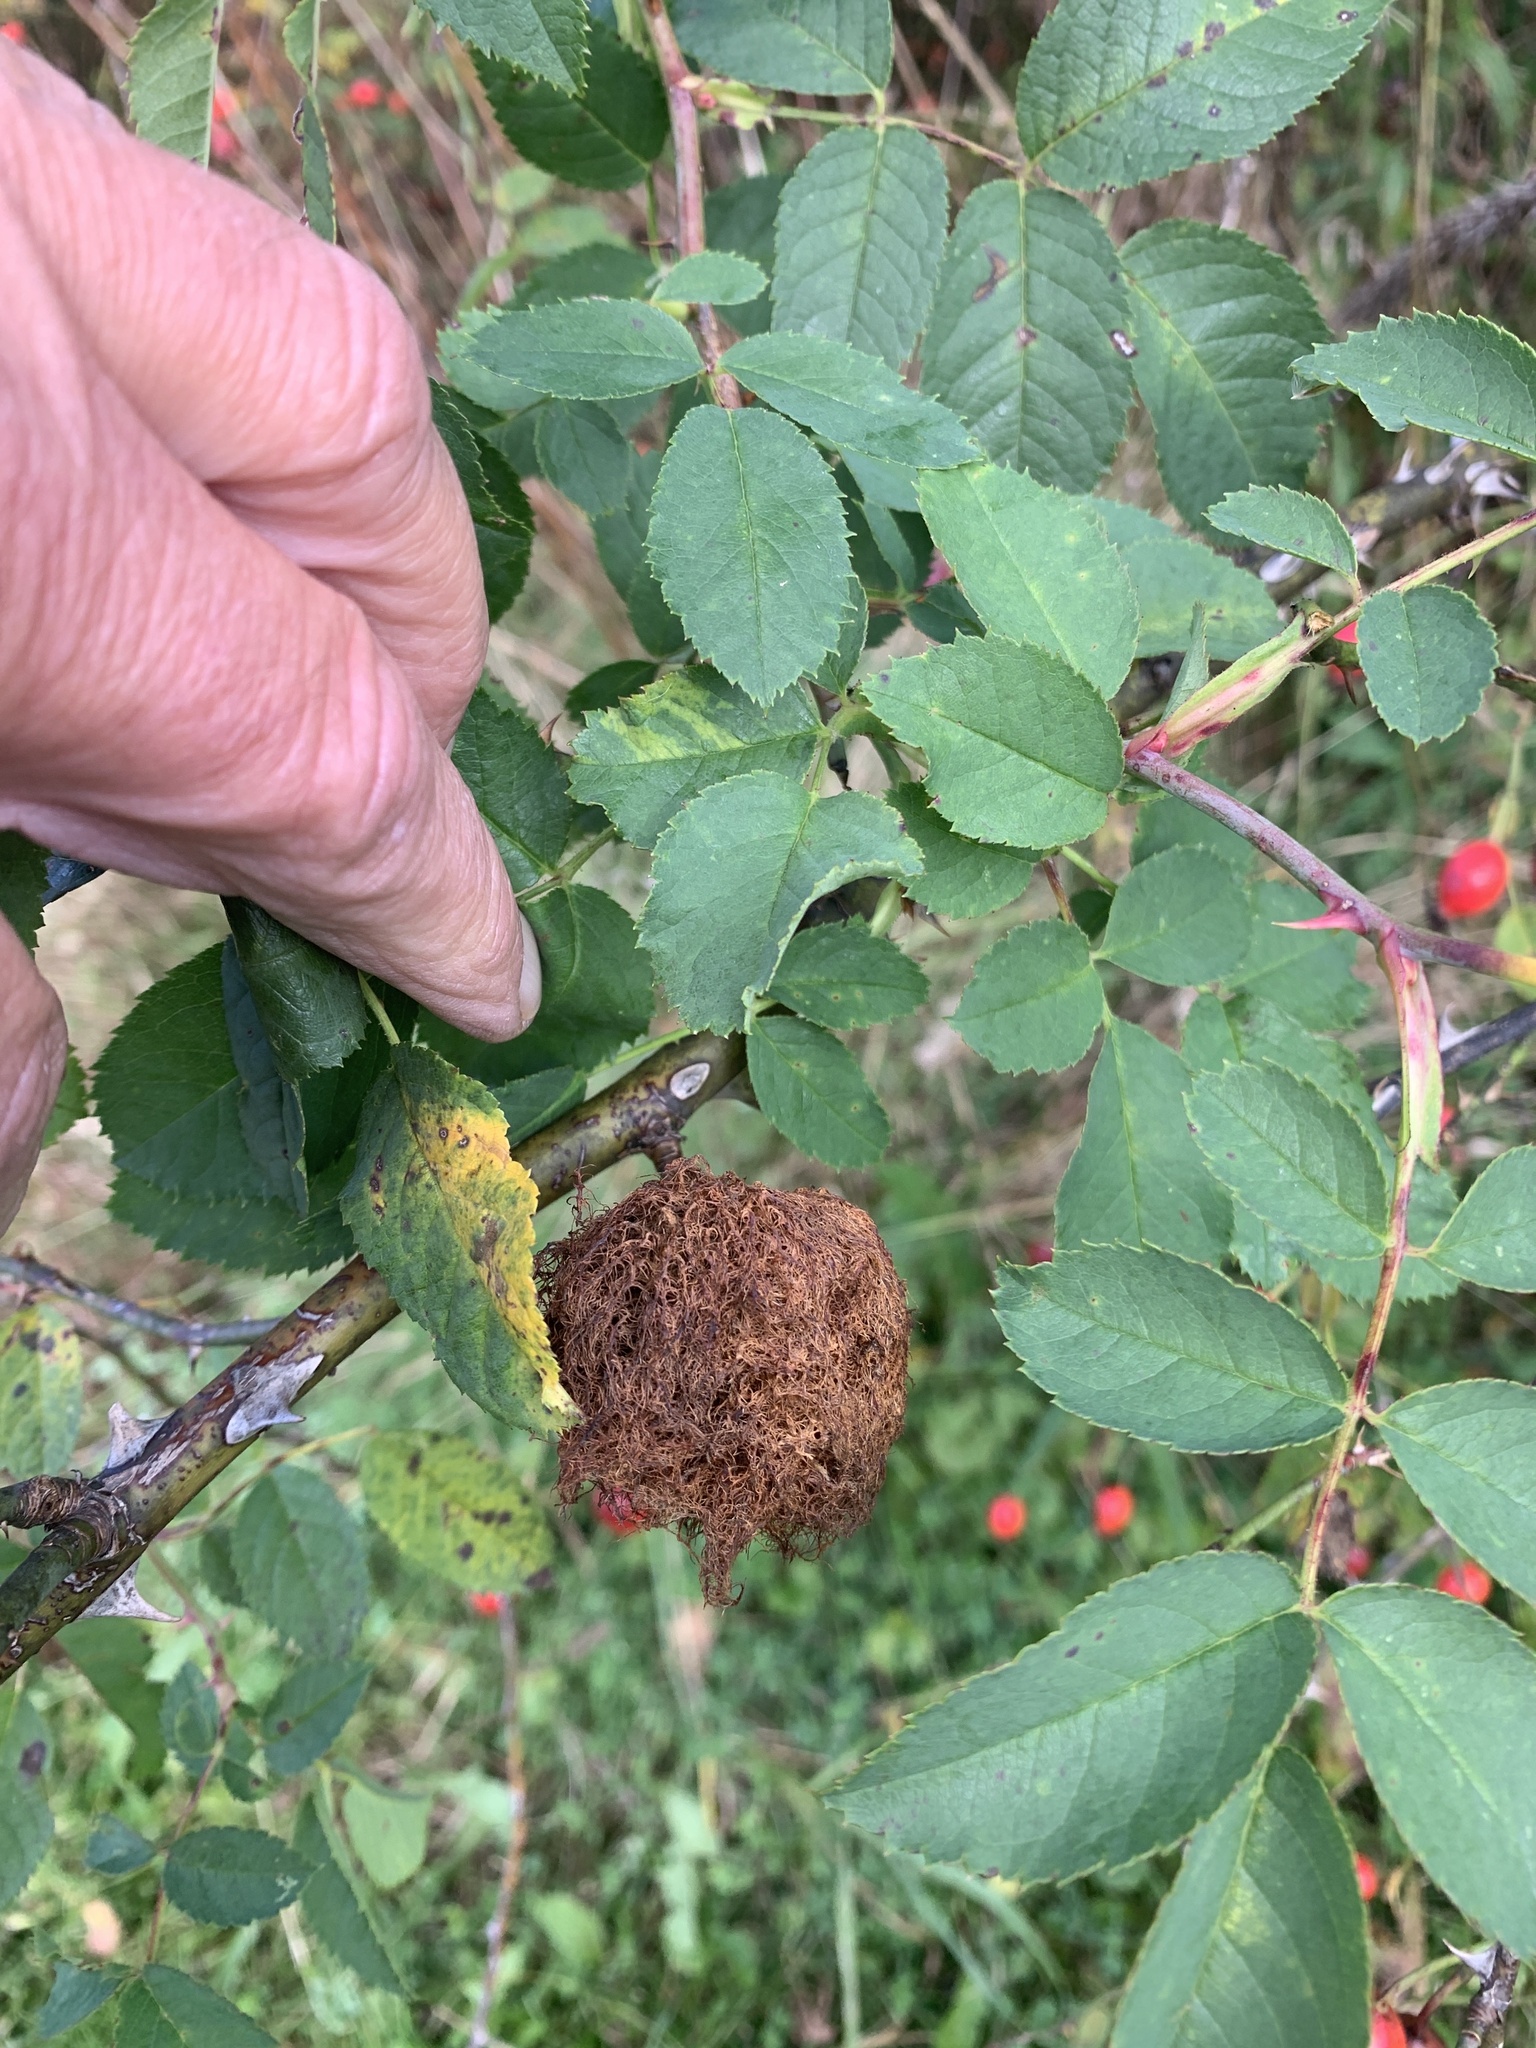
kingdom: Animalia
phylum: Arthropoda
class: Insecta
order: Hymenoptera
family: Cynipidae
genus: Diplolepis
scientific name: Diplolepis rosae
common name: Bedeguar gall
